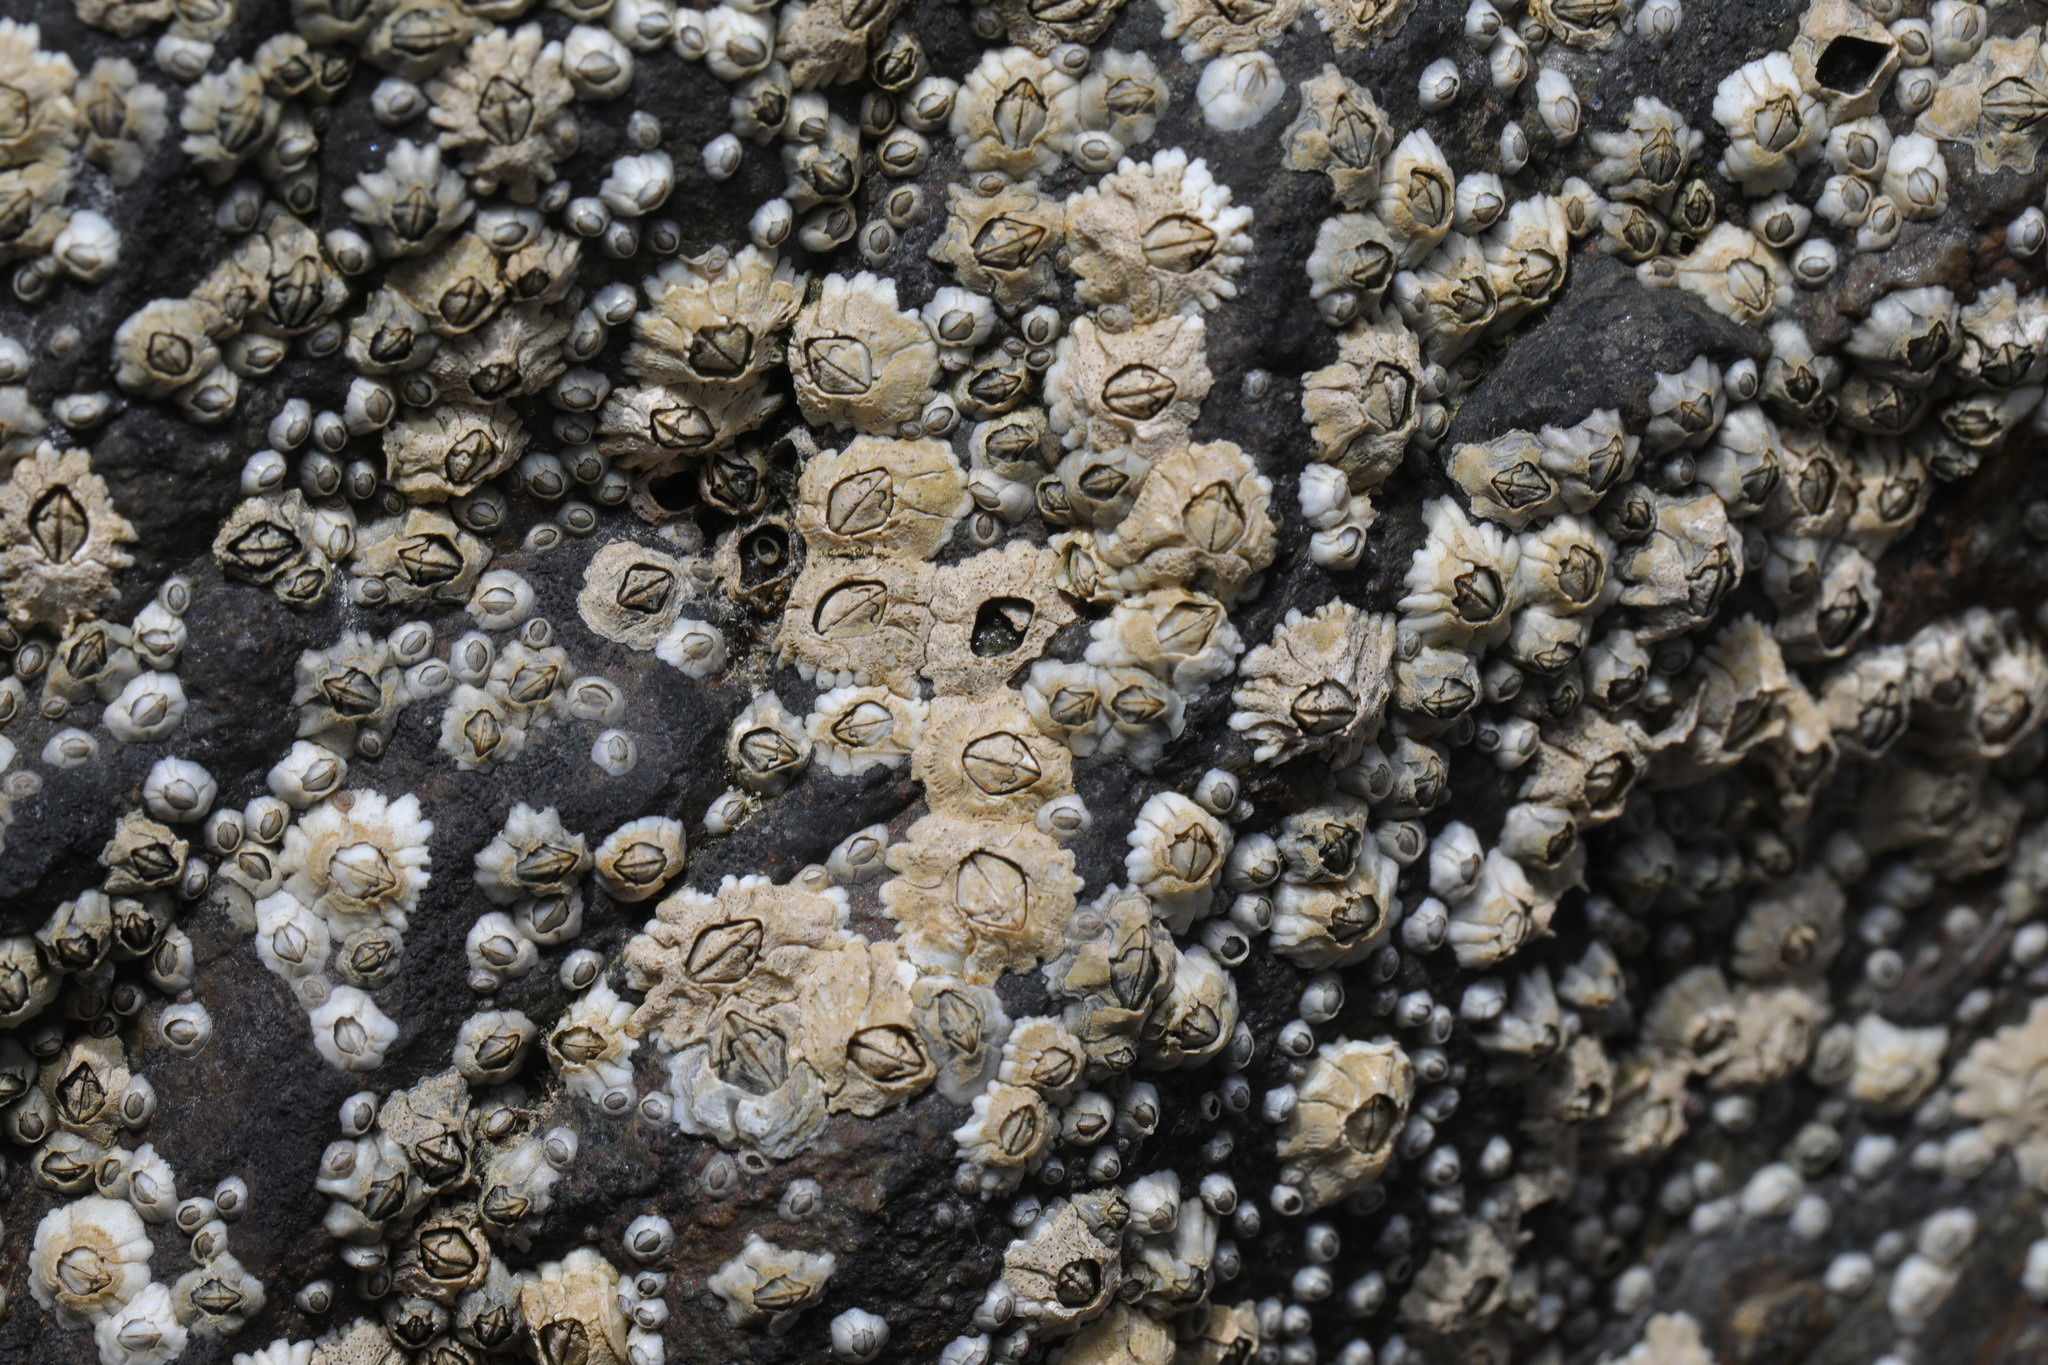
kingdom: Animalia
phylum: Arthropoda
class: Maxillopoda
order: Sessilia
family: Archaeobalanidae
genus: Semibalanus
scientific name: Semibalanus balanoides
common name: Acorn barnacle
